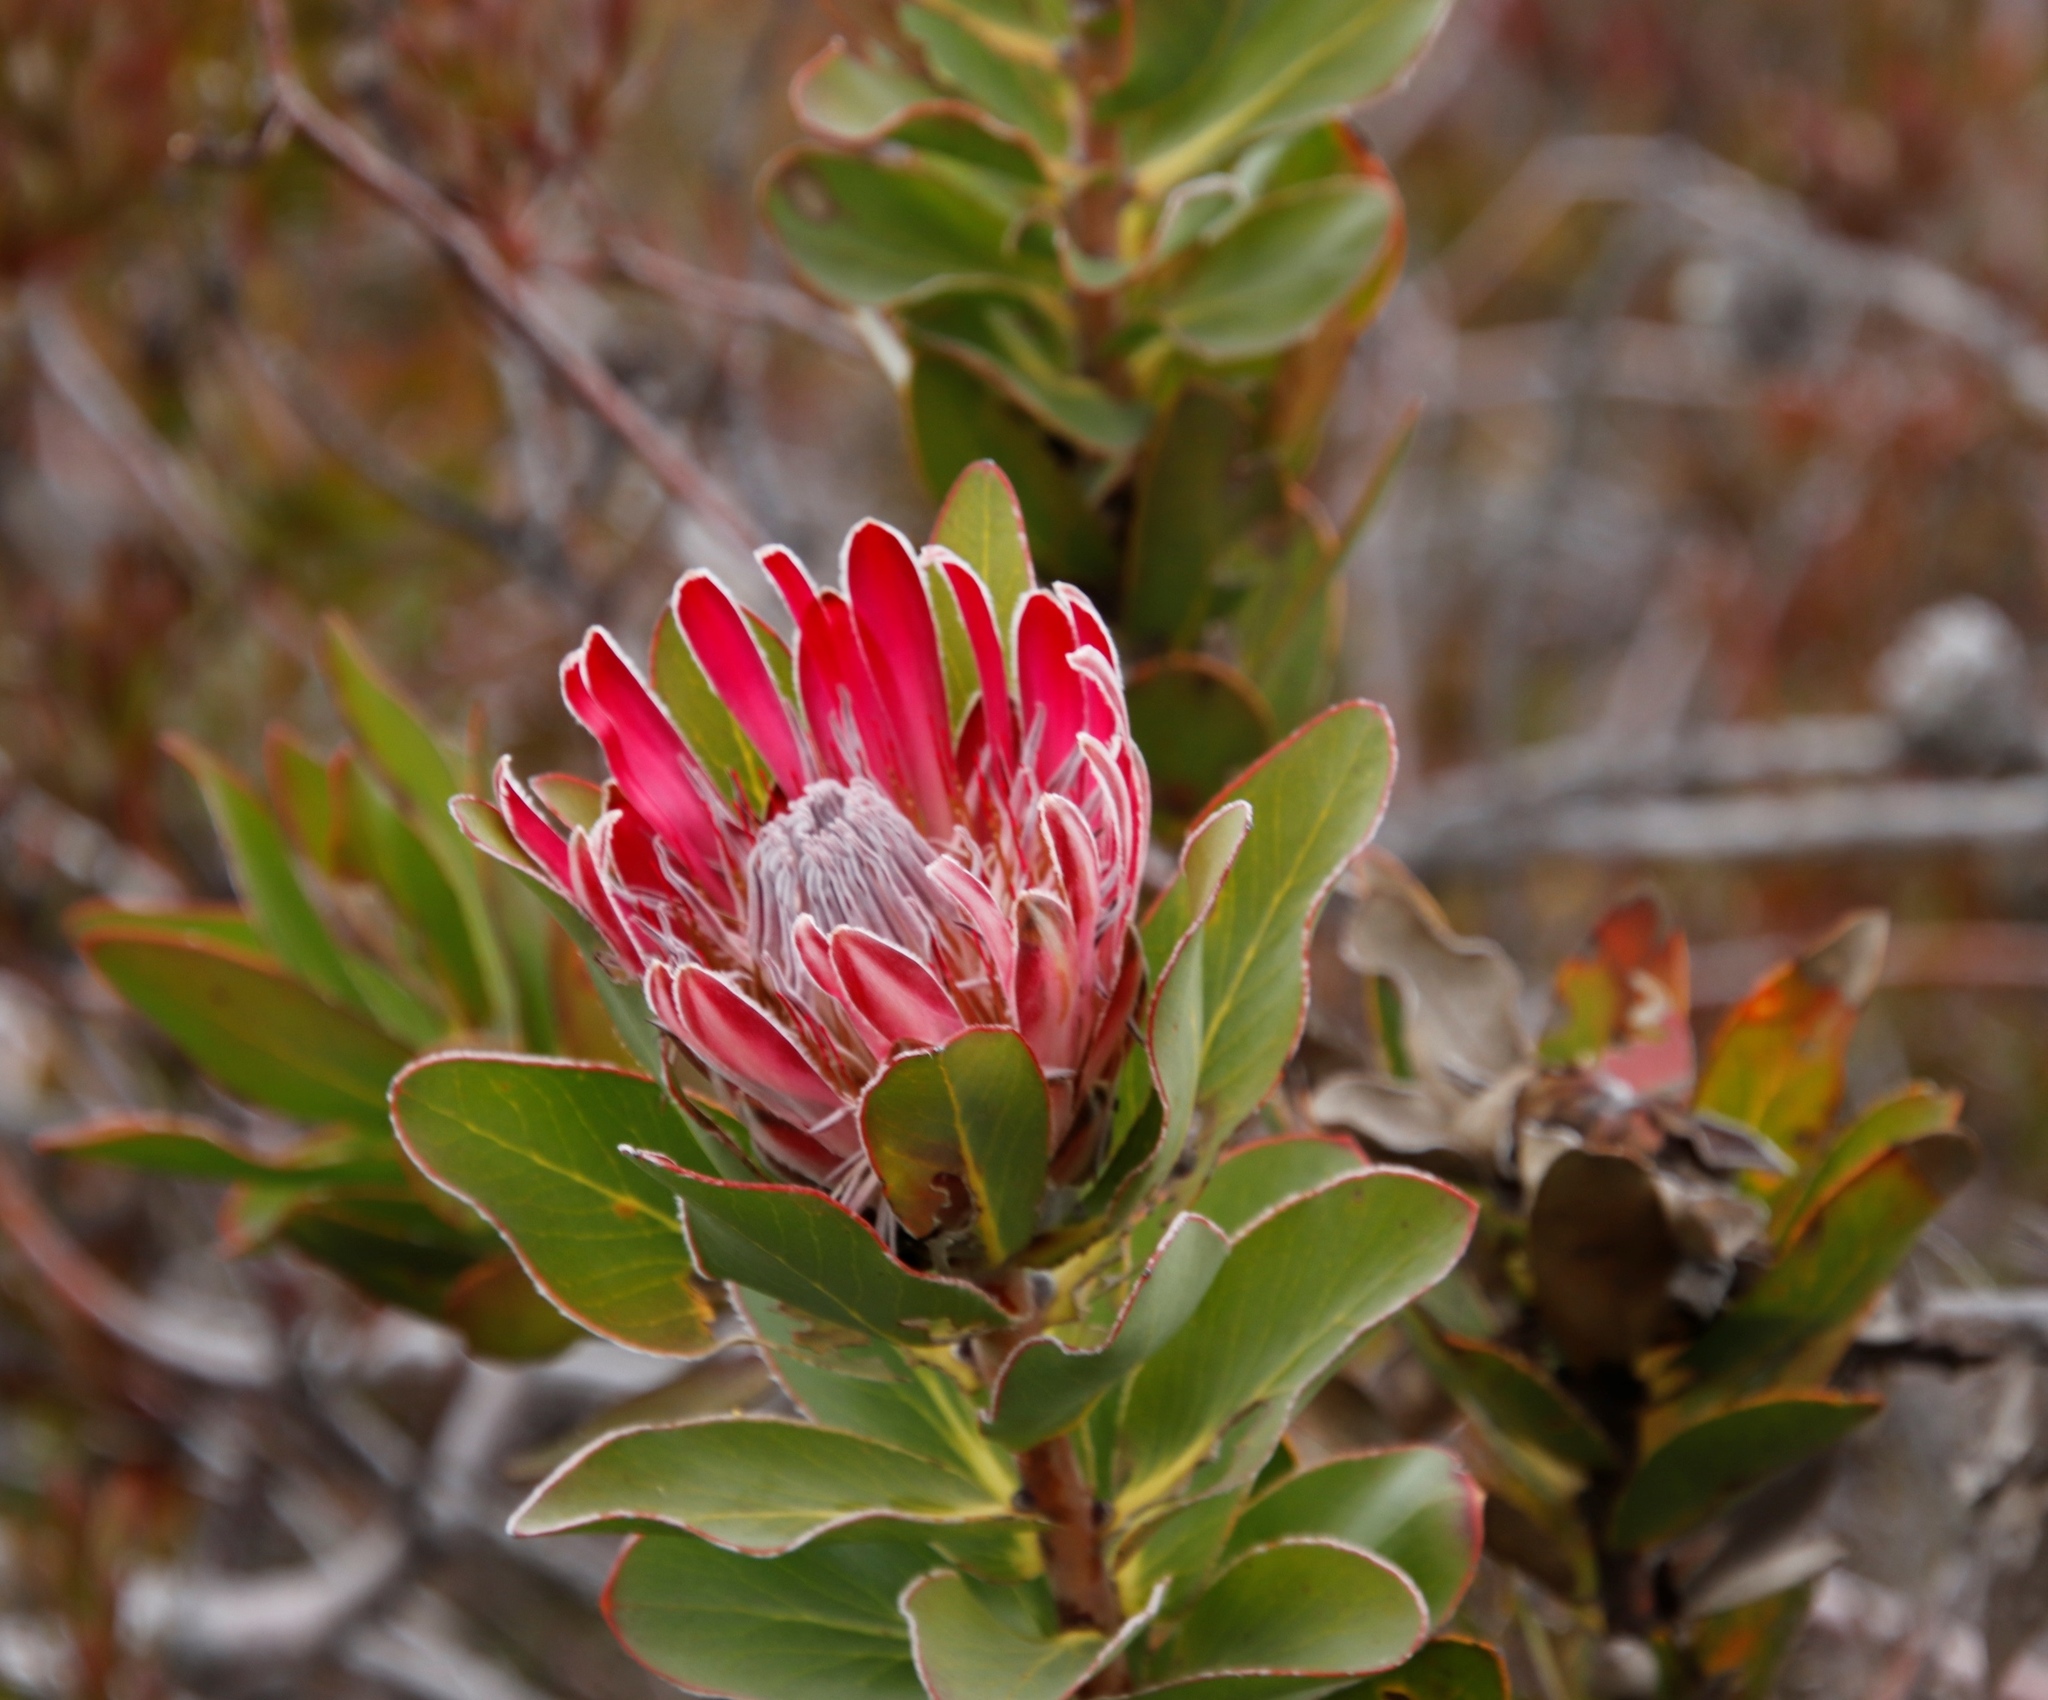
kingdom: Plantae
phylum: Tracheophyta
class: Magnoliopsida
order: Proteales
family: Proteaceae
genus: Protea
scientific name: Protea compacta
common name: Bot river protea
